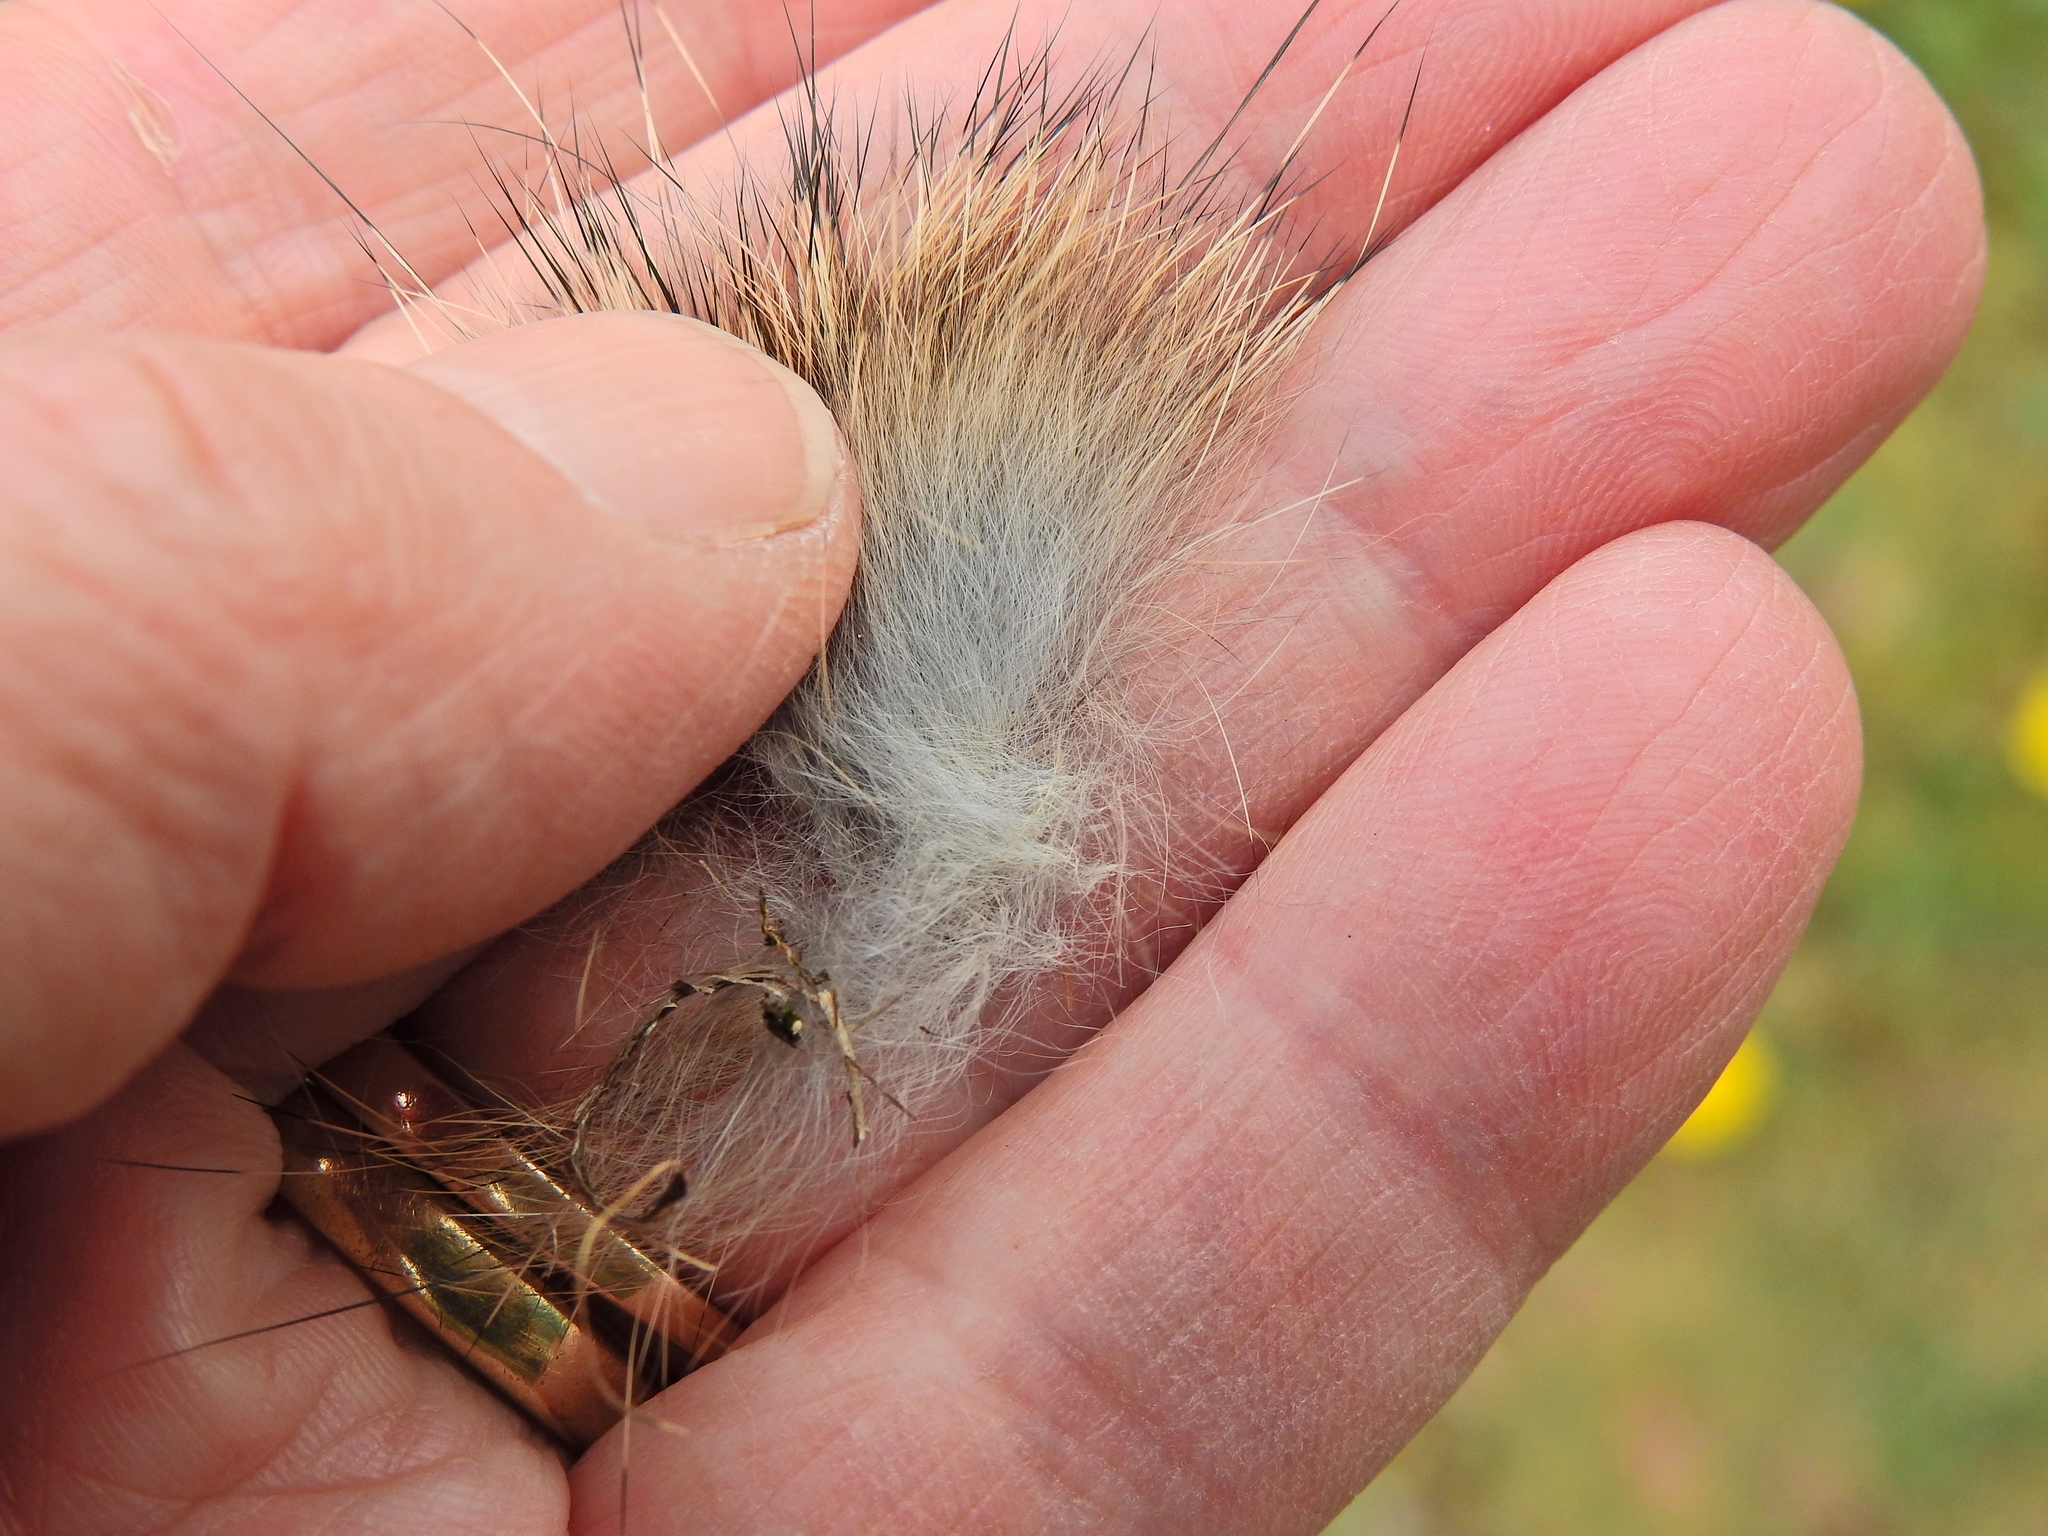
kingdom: Animalia
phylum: Chordata
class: Mammalia
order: Lagomorpha
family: Leporidae
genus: Oryctolagus
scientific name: Oryctolagus cuniculus
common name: European rabbit
